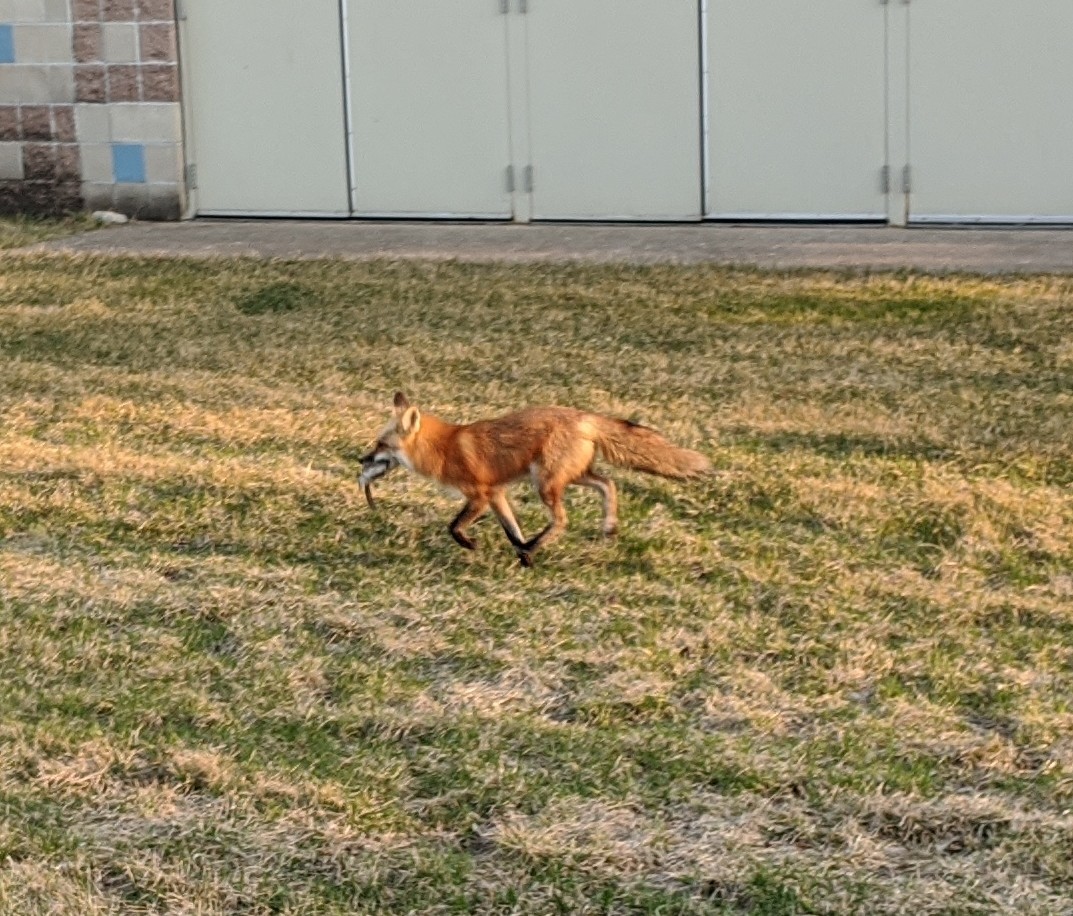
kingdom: Animalia
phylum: Chordata
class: Mammalia
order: Carnivora
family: Canidae
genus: Vulpes
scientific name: Vulpes vulpes
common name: Red fox
